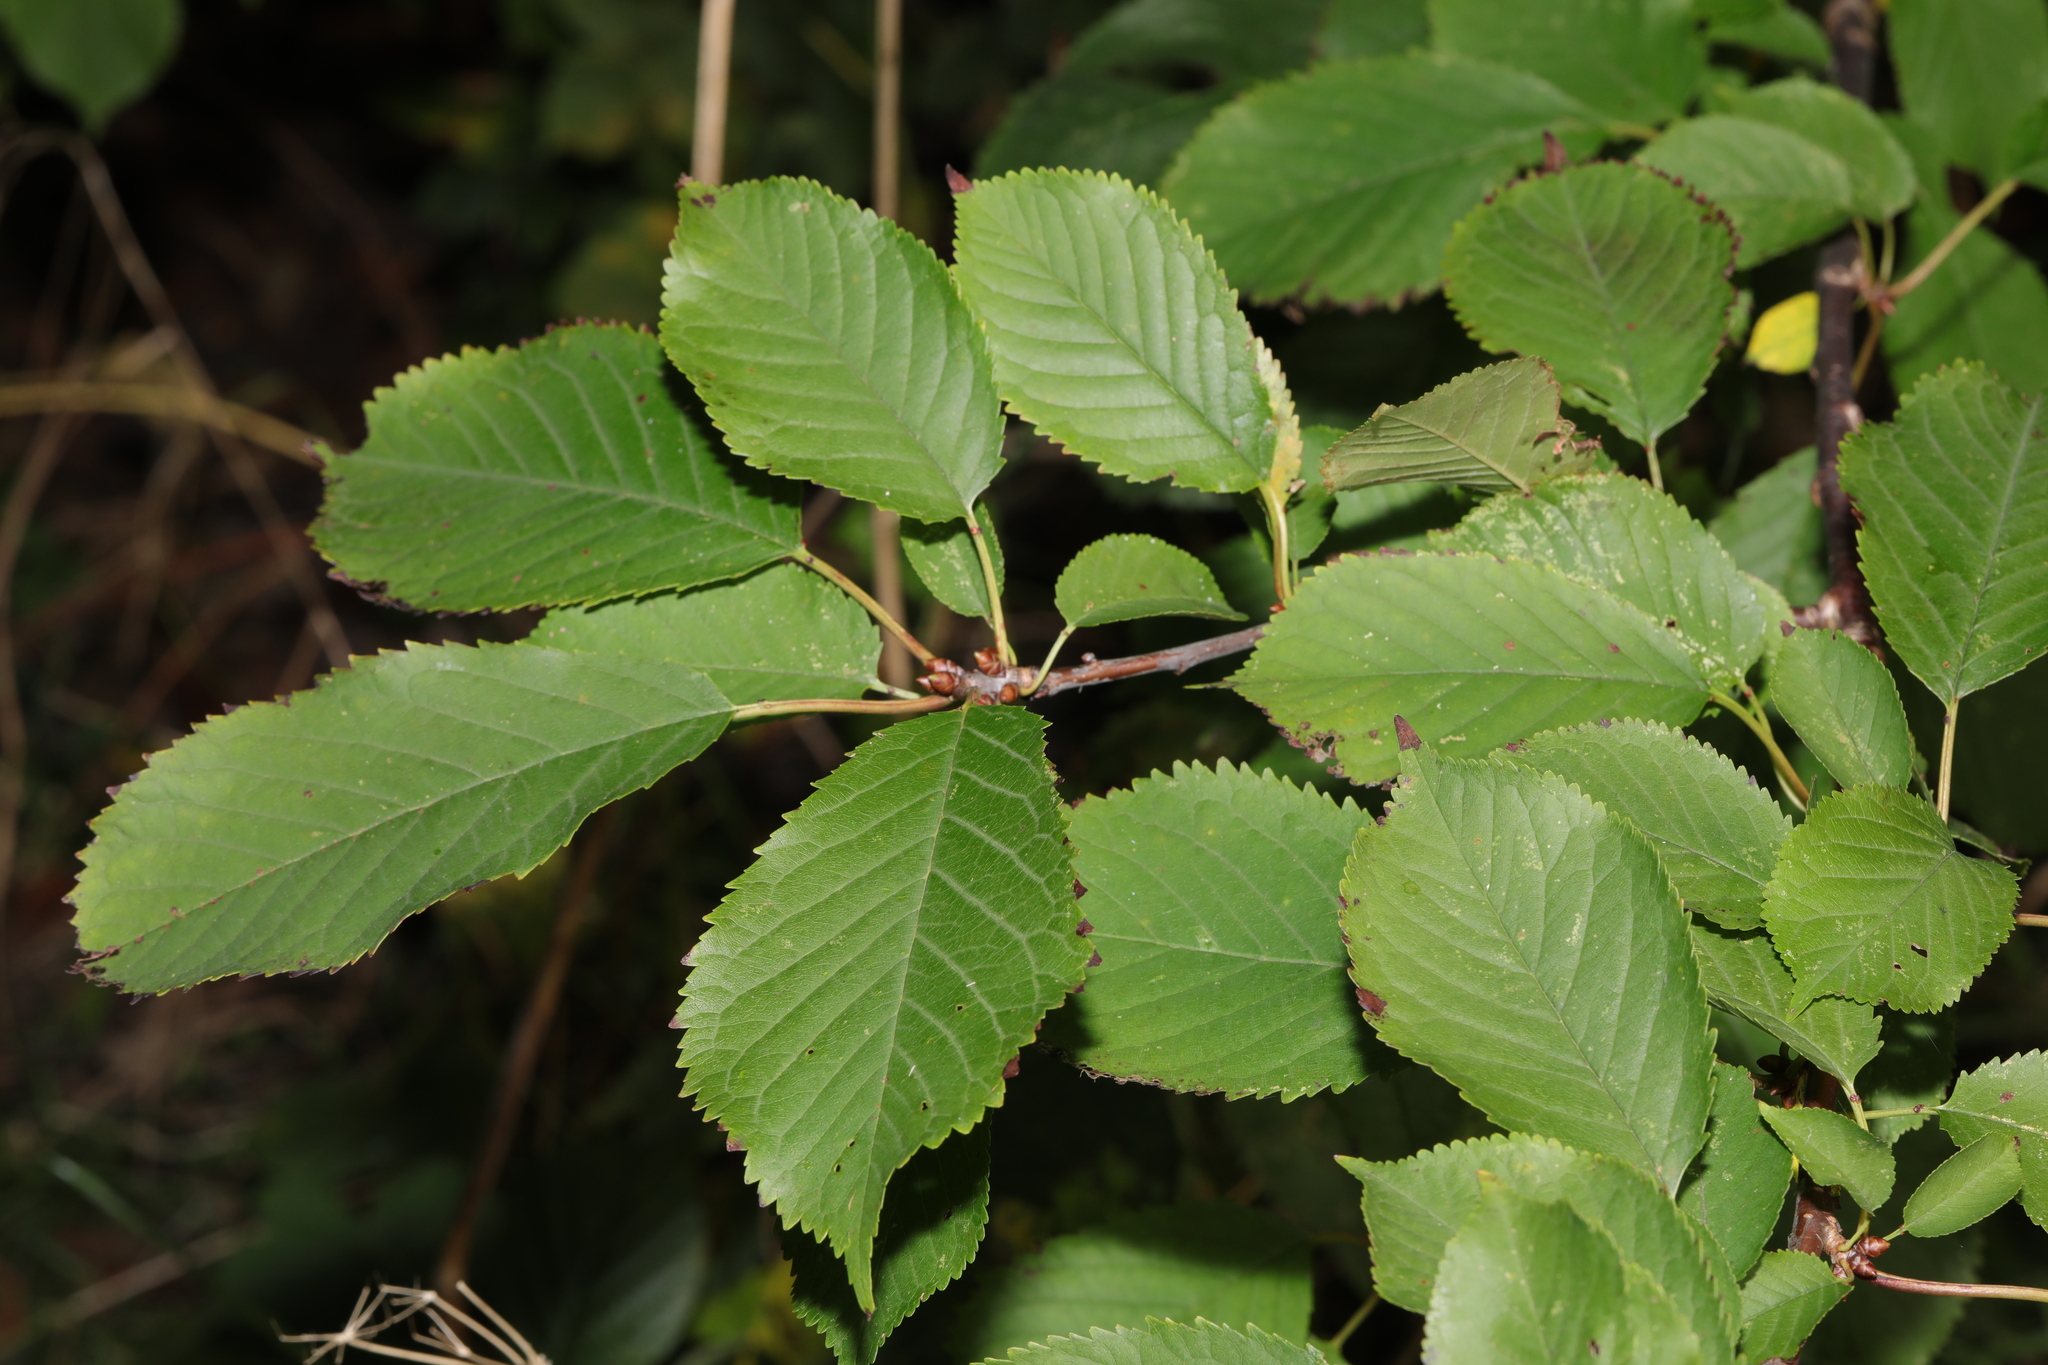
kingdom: Plantae
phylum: Tracheophyta
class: Magnoliopsida
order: Rosales
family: Rosaceae
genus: Prunus
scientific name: Prunus avium
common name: Sweet cherry
